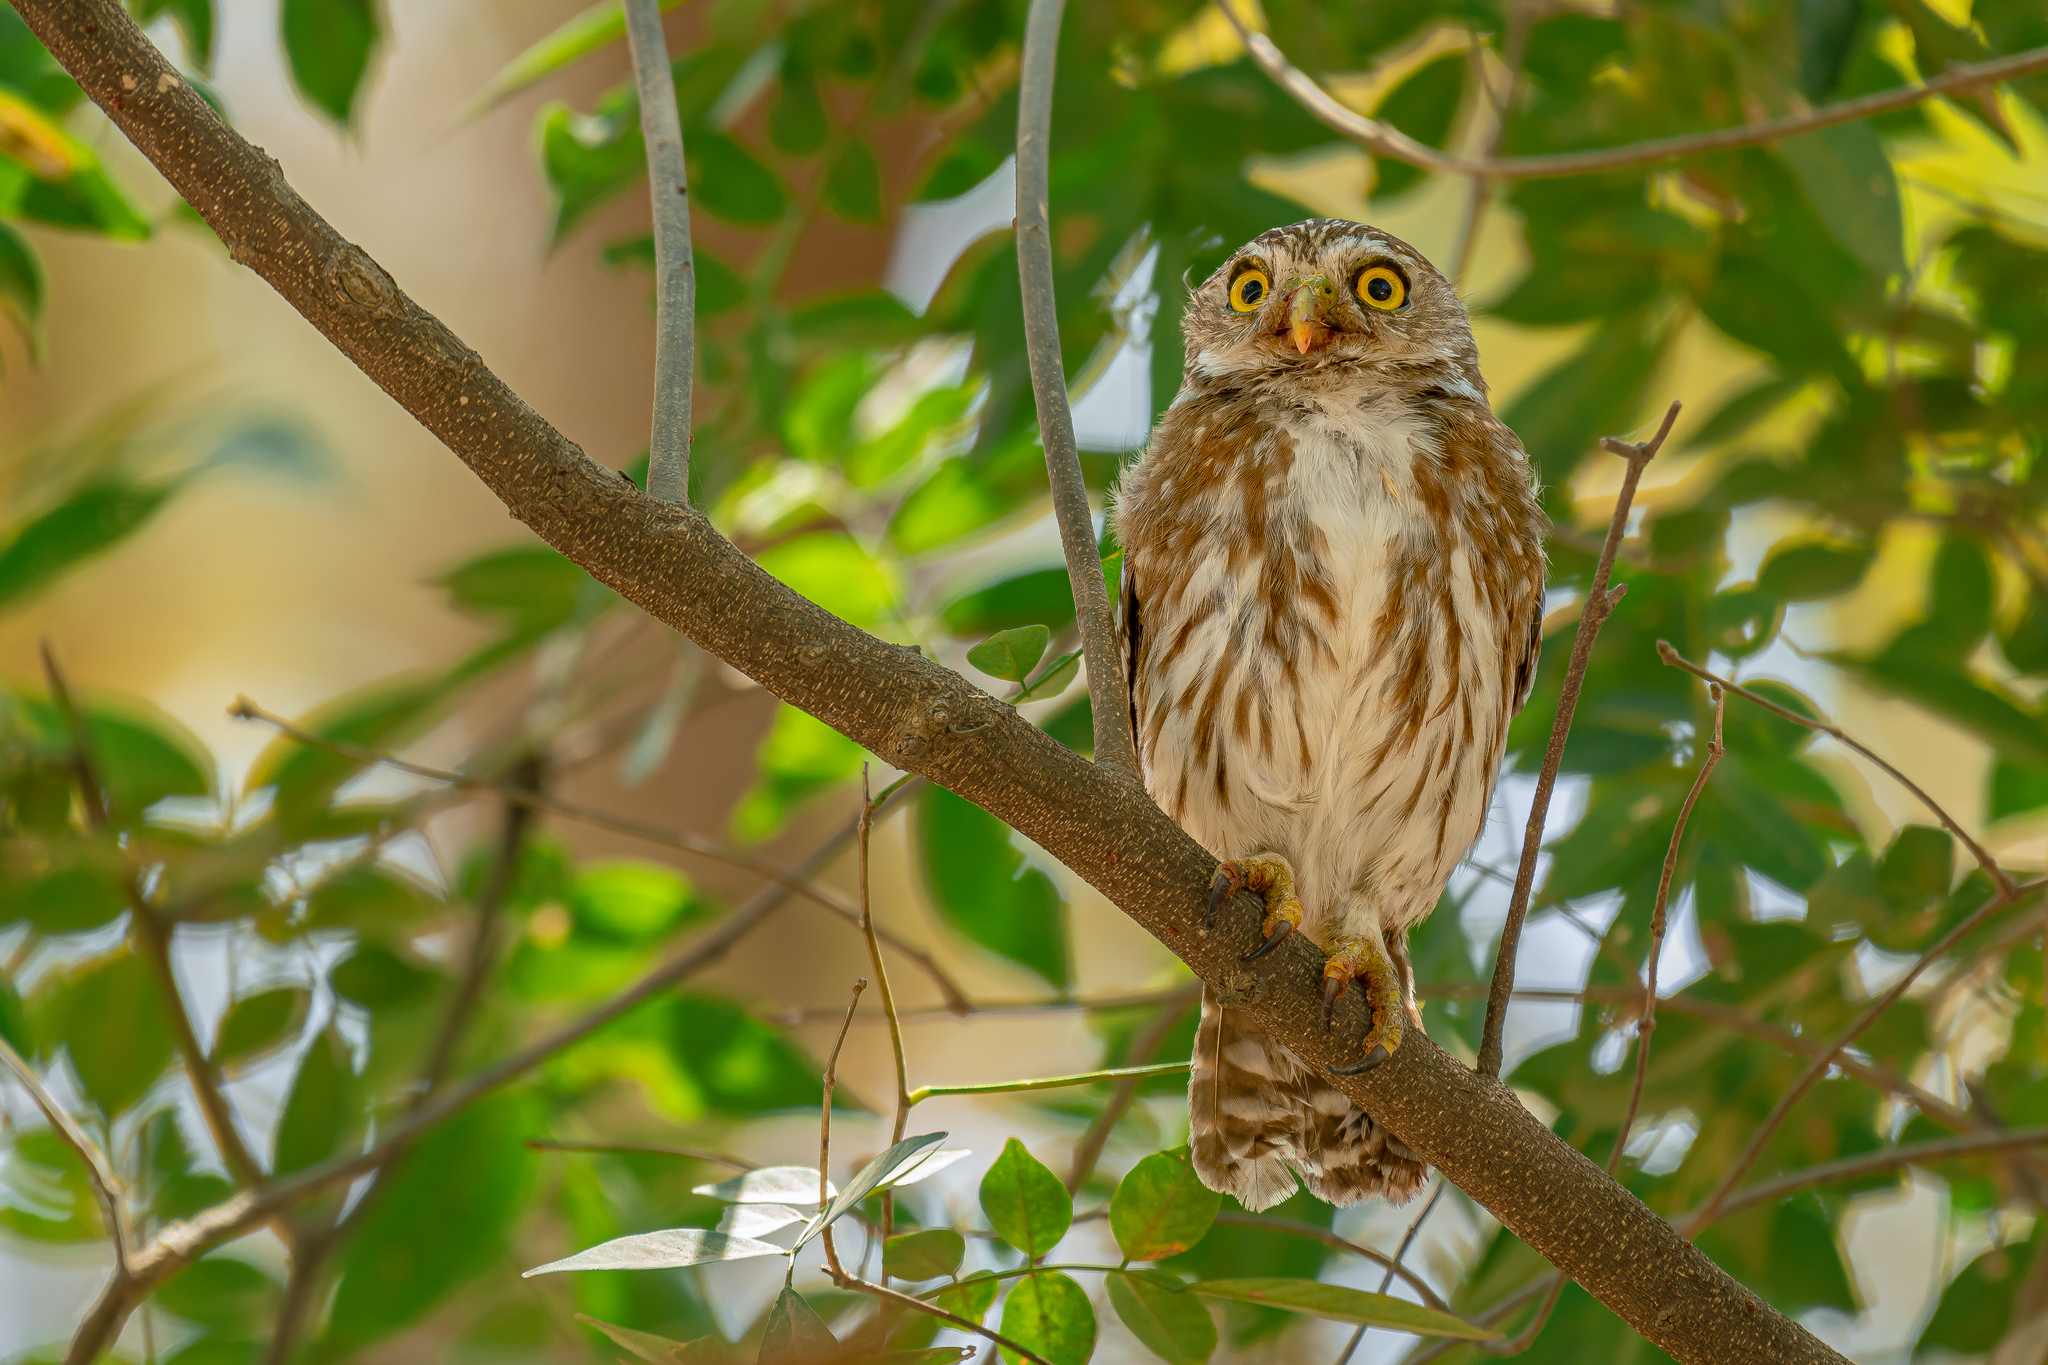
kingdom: Animalia
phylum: Chordata
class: Aves
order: Strigiformes
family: Strigidae
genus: Glaucidium
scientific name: Glaucidium brasilianum
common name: Ferruginous pygmy-owl
